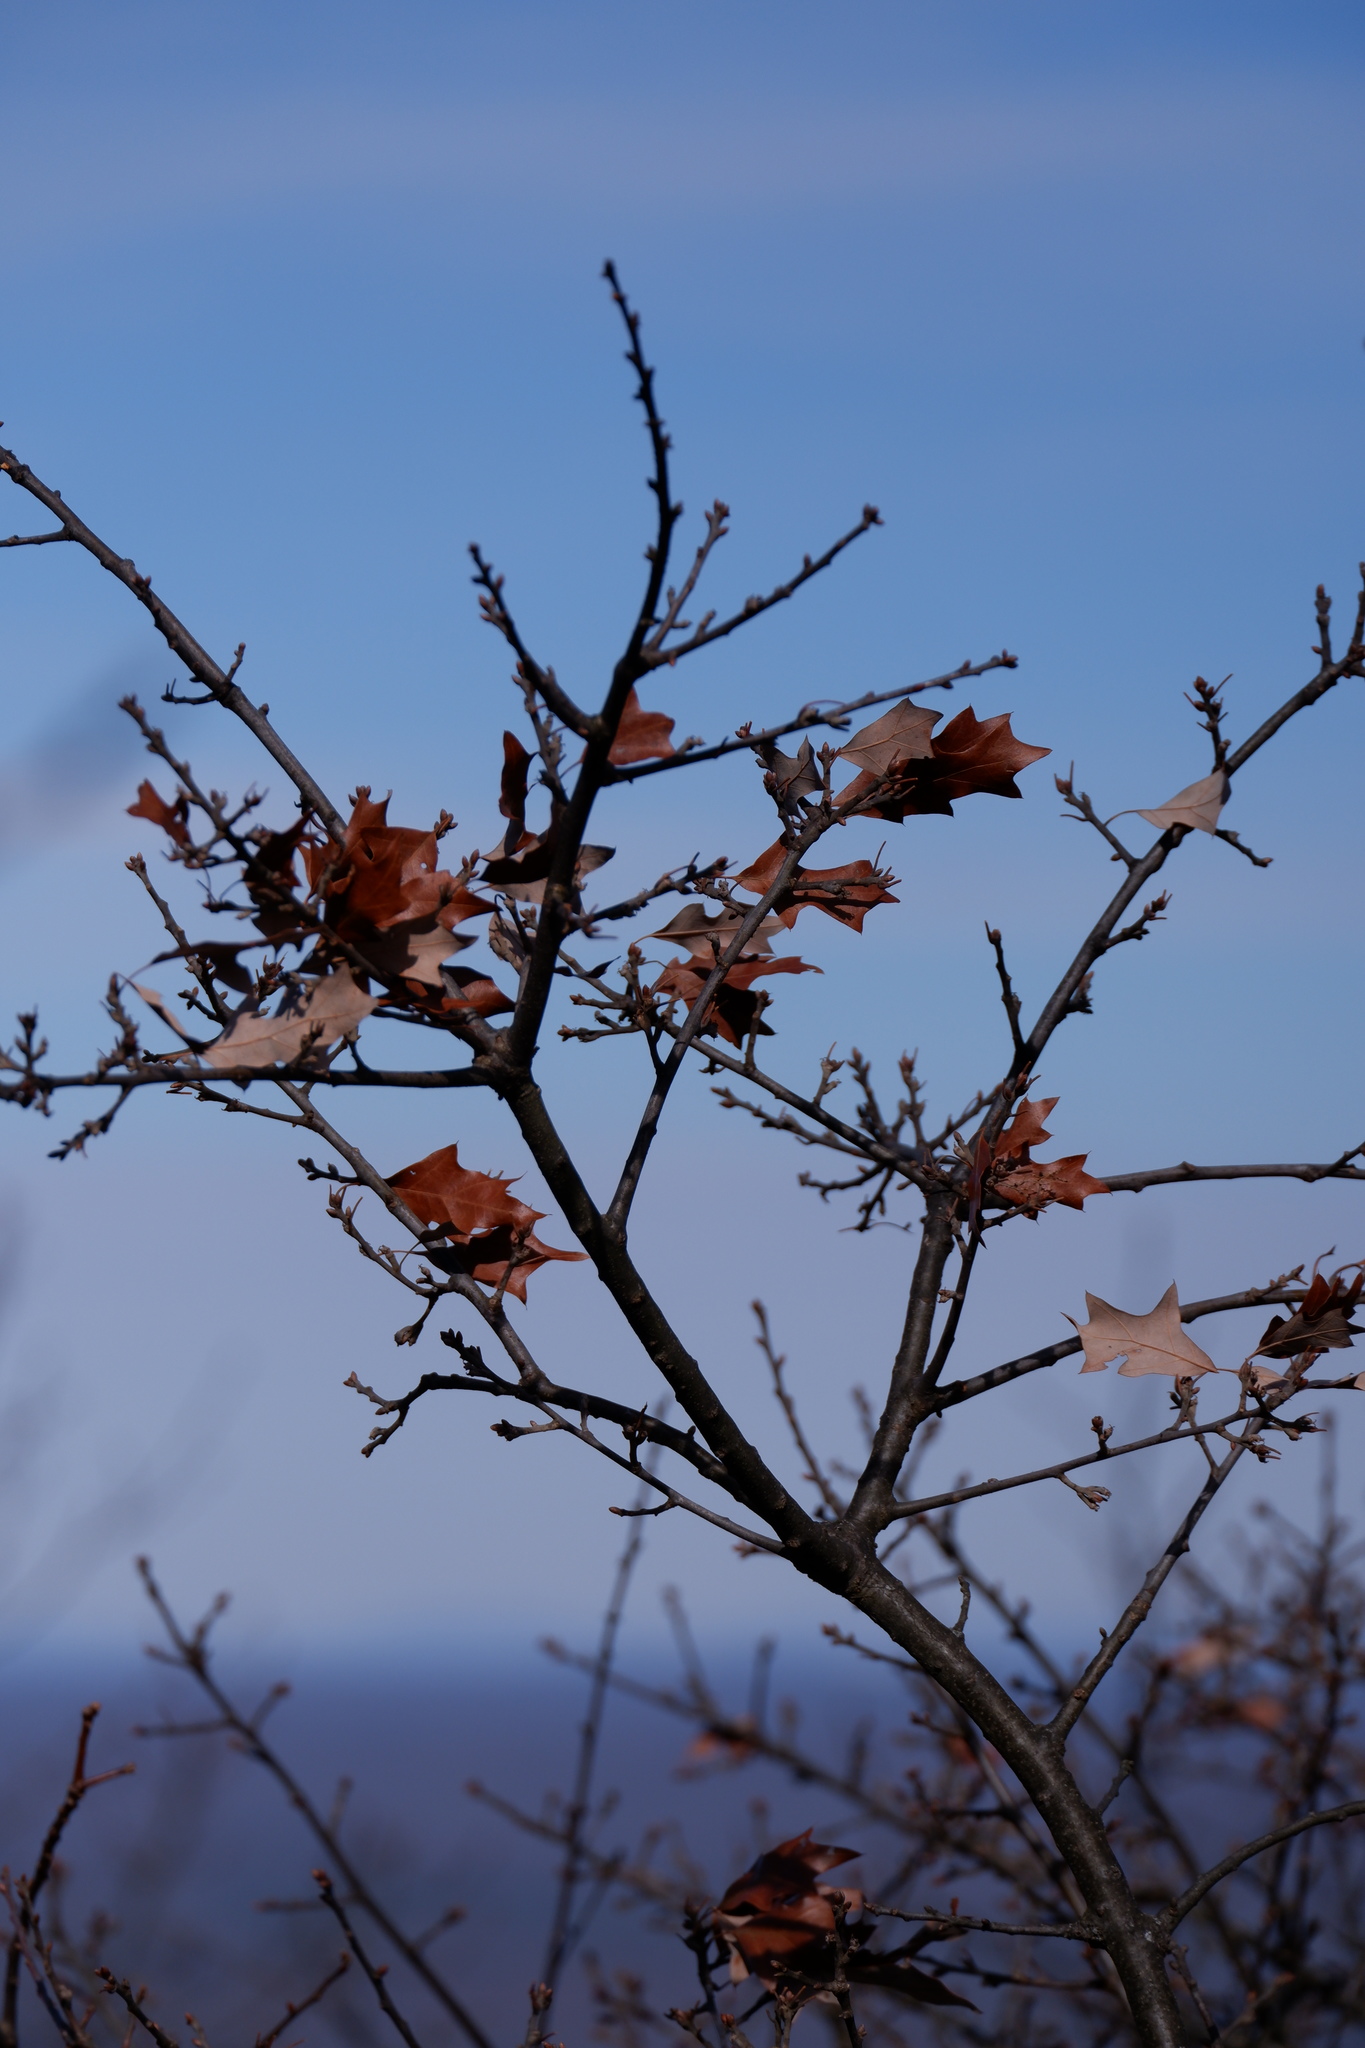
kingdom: Plantae
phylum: Tracheophyta
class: Magnoliopsida
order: Fagales
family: Fagaceae
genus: Quercus
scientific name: Quercus ilicifolia
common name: Bear oak
